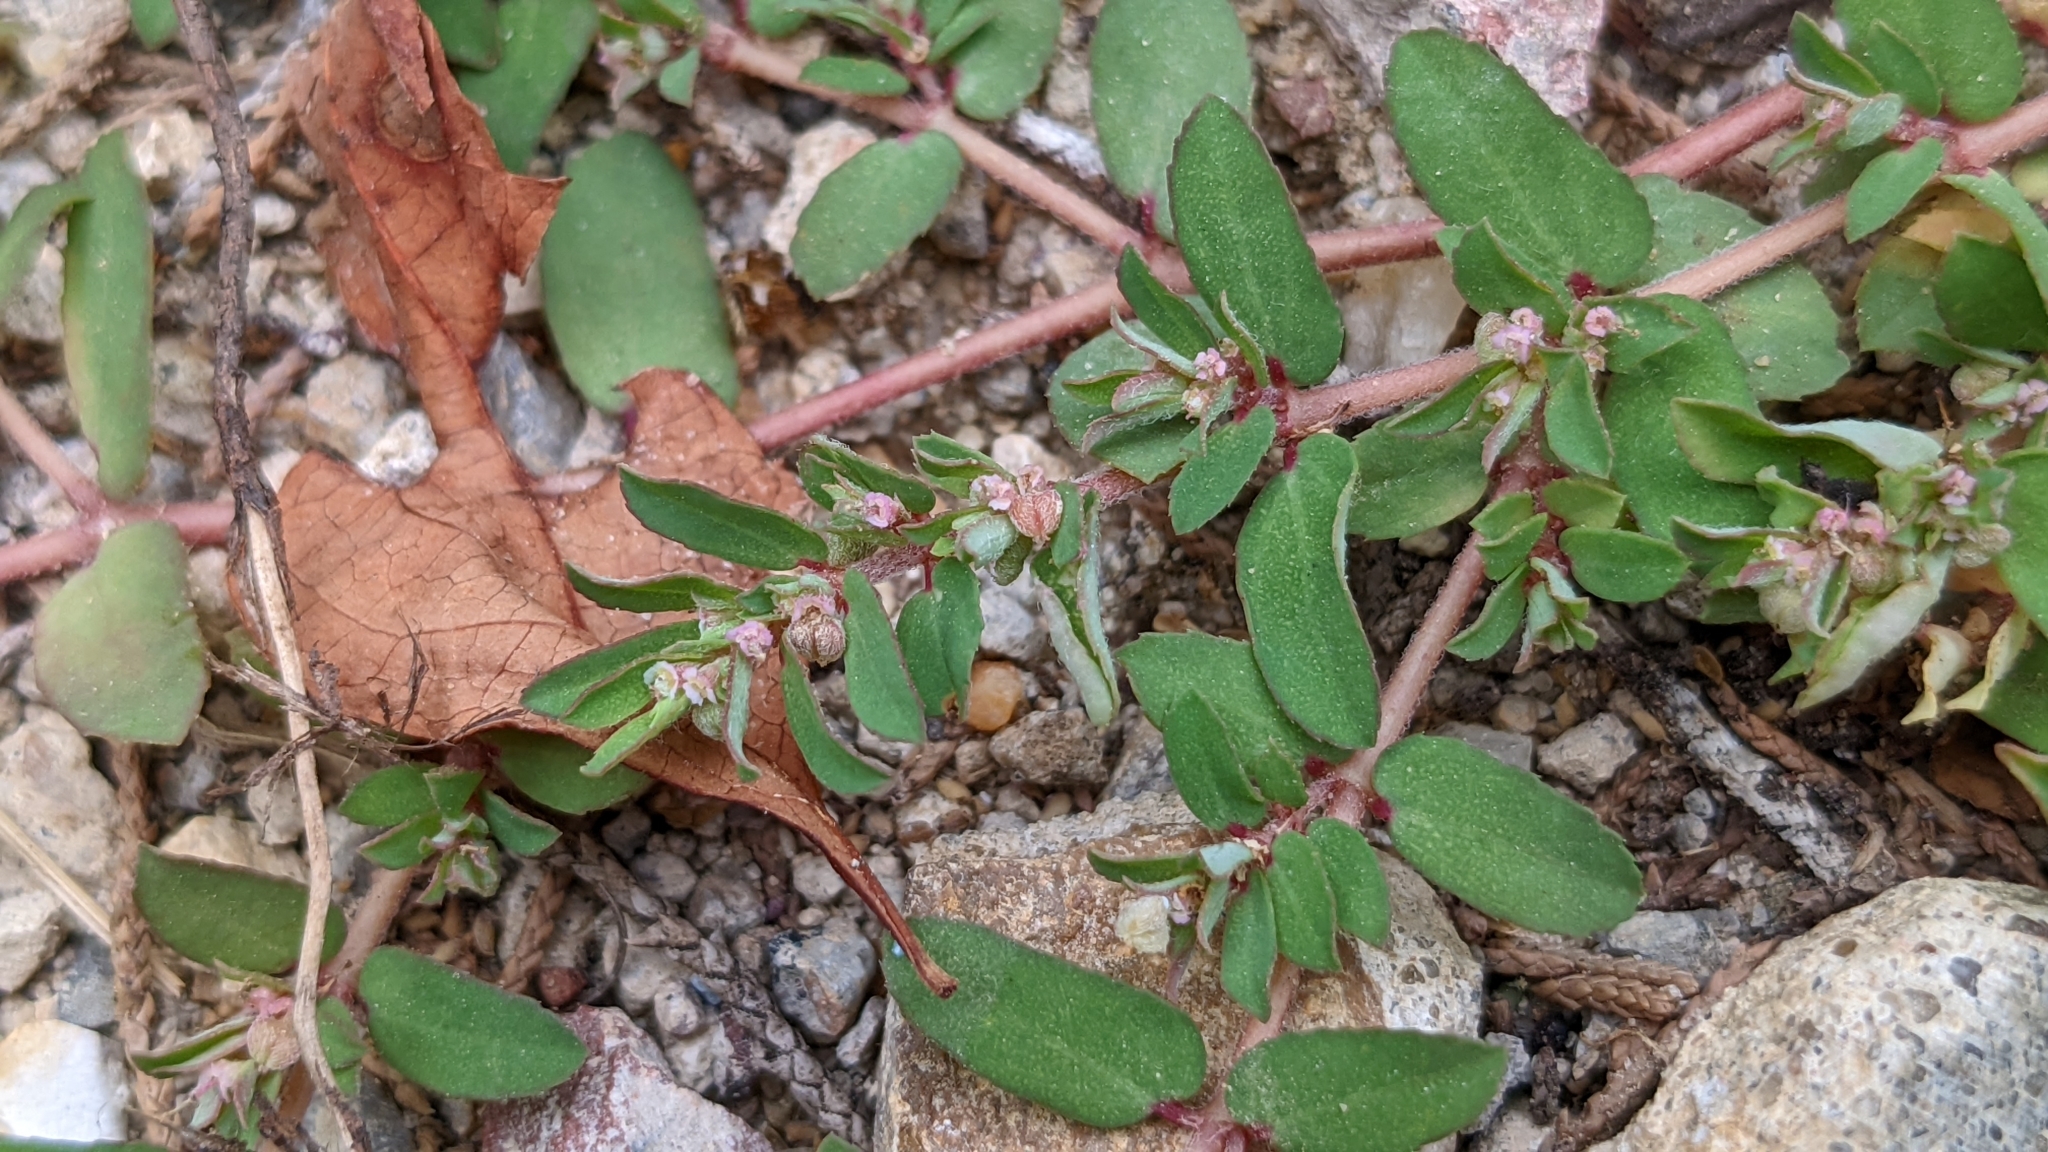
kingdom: Plantae
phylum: Tracheophyta
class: Magnoliopsida
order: Malpighiales
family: Euphorbiaceae
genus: Euphorbia
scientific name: Euphorbia maculata
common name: Spotted spurge
